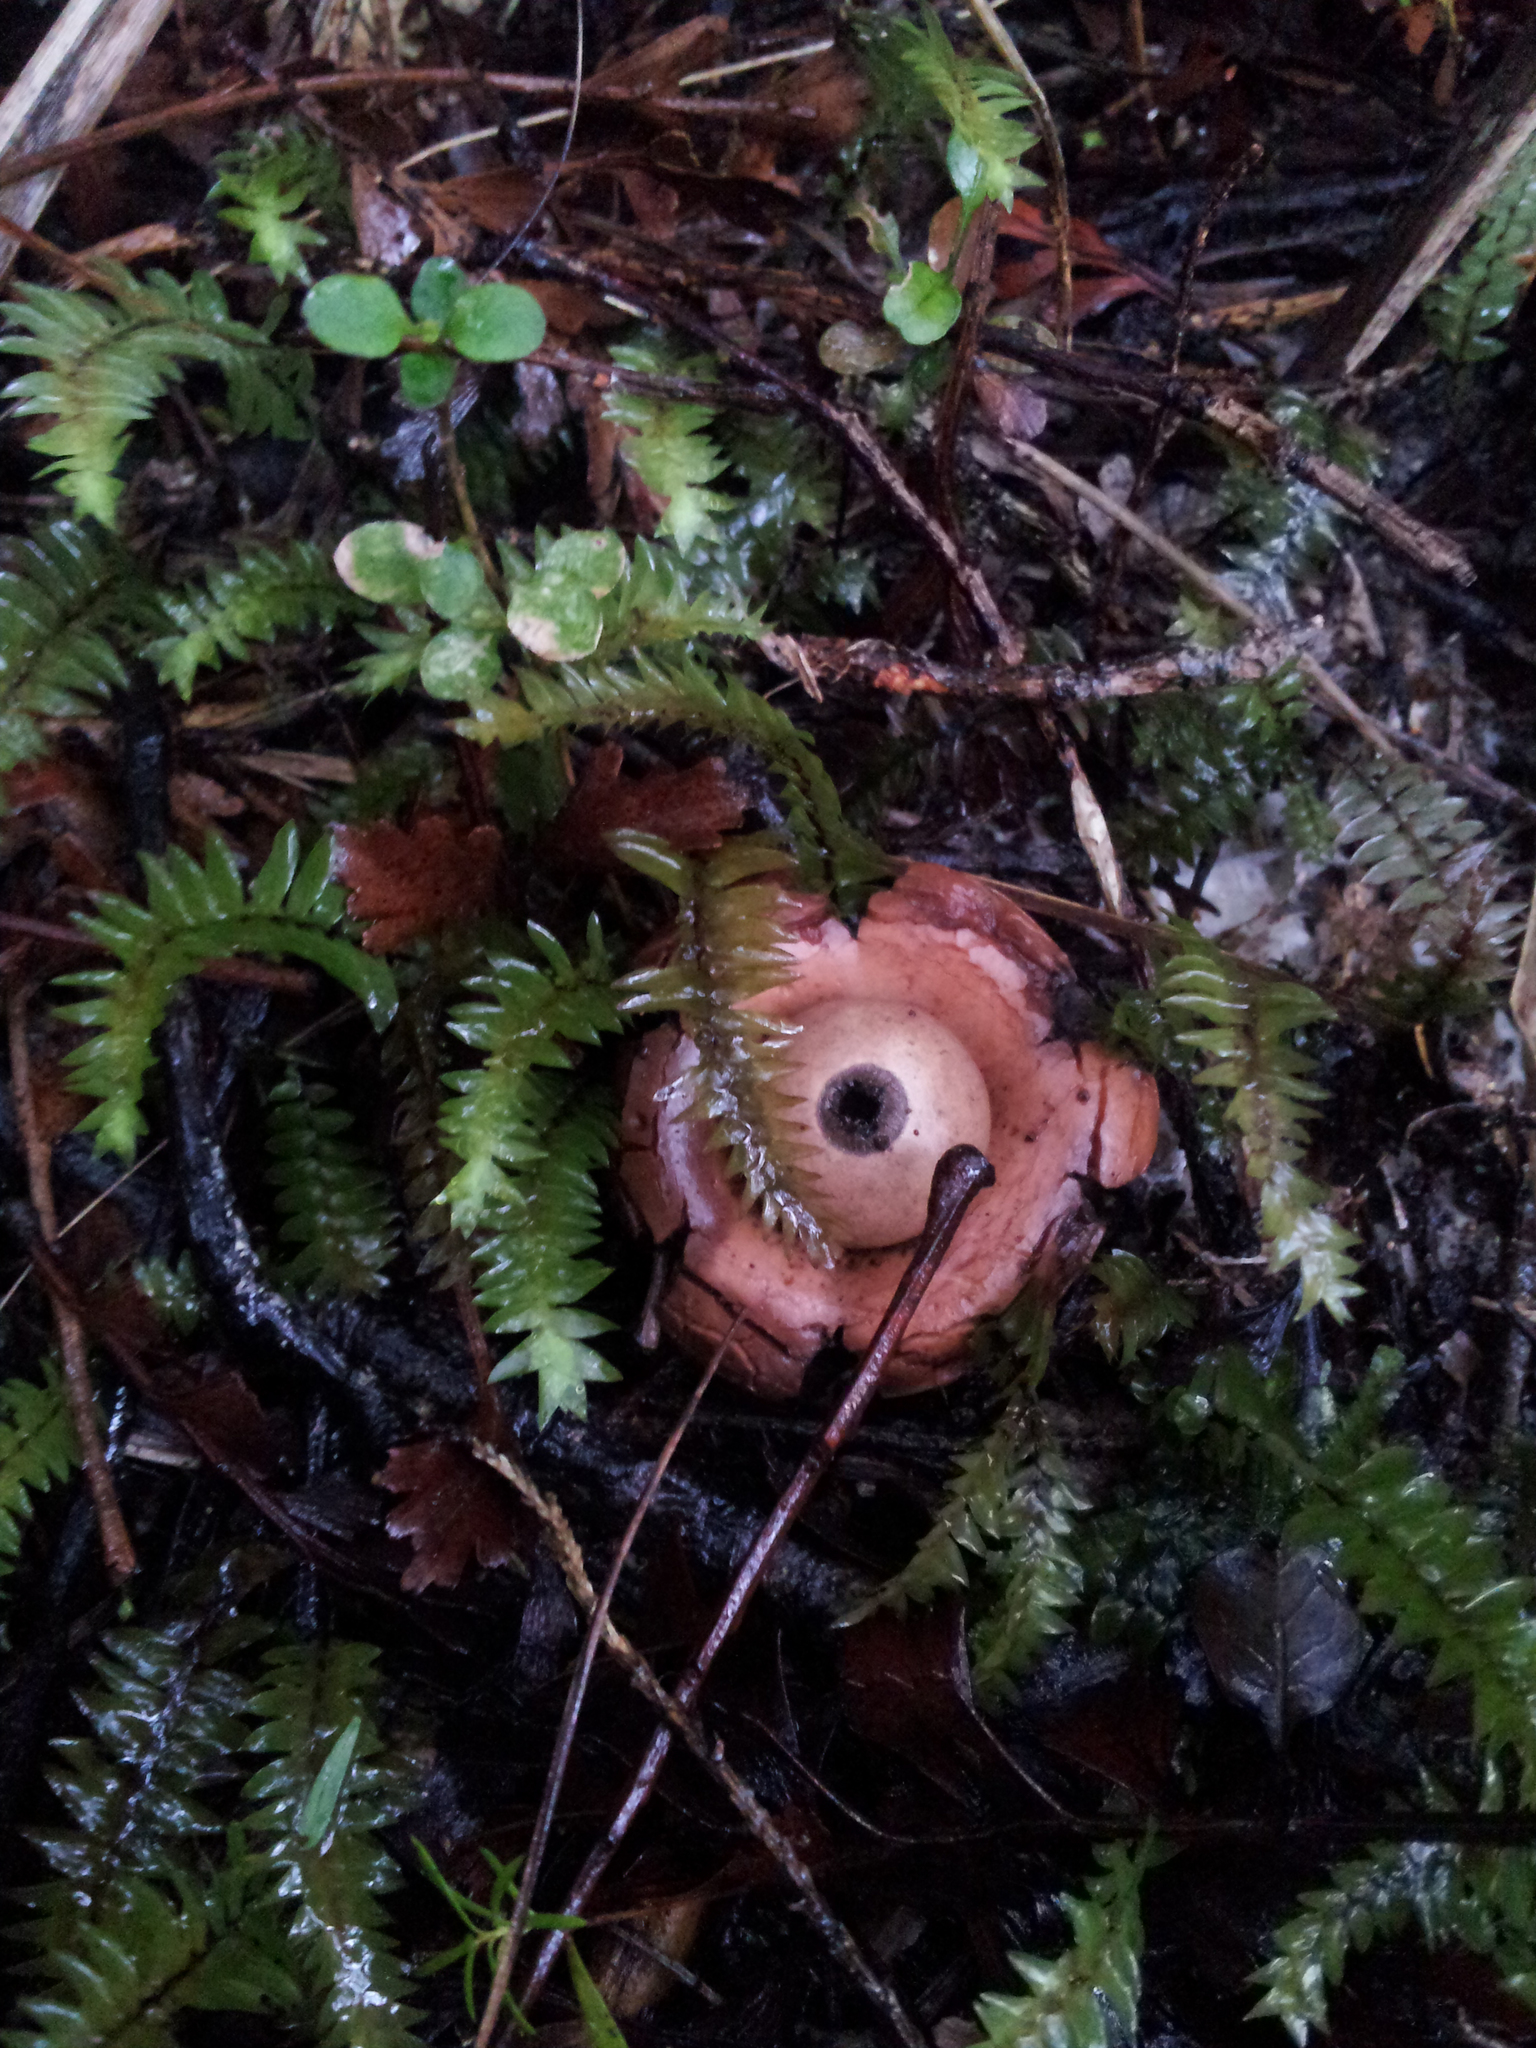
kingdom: Plantae
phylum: Bryophyta
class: Bryopsida
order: Hypopterygiales
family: Hypopterygiaceae
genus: Cyathophorum
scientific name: Cyathophorum bulbosum
